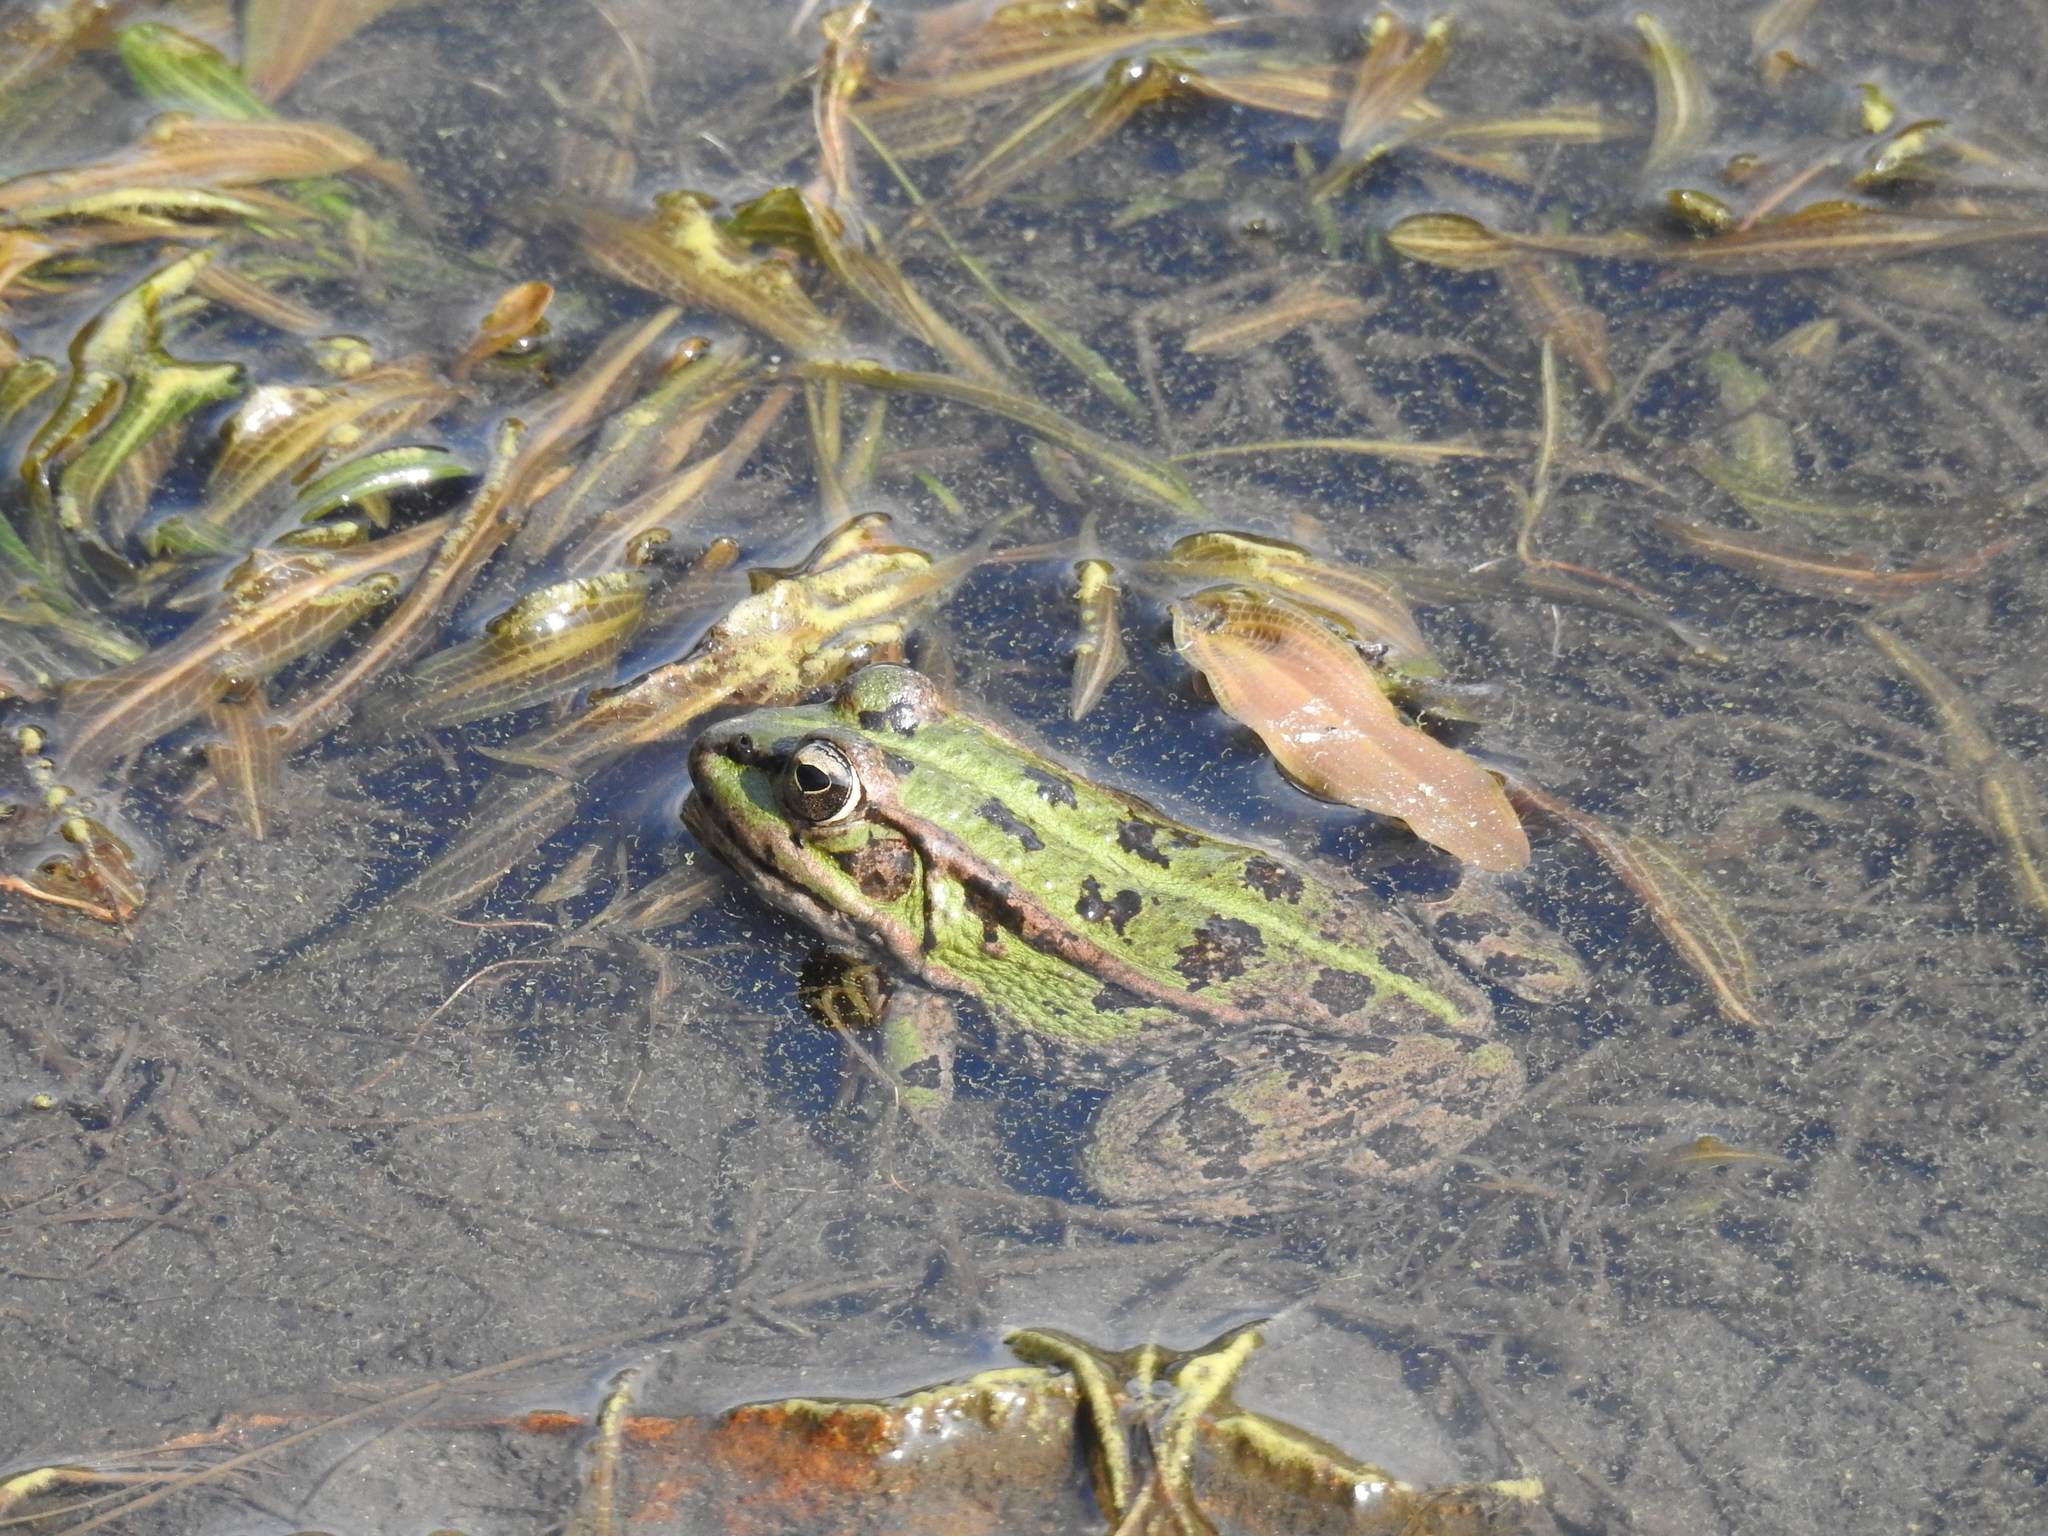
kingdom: Animalia
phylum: Chordata
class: Amphibia
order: Anura
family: Ranidae
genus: Pelophylax
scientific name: Pelophylax perezi
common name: Perez's frog
